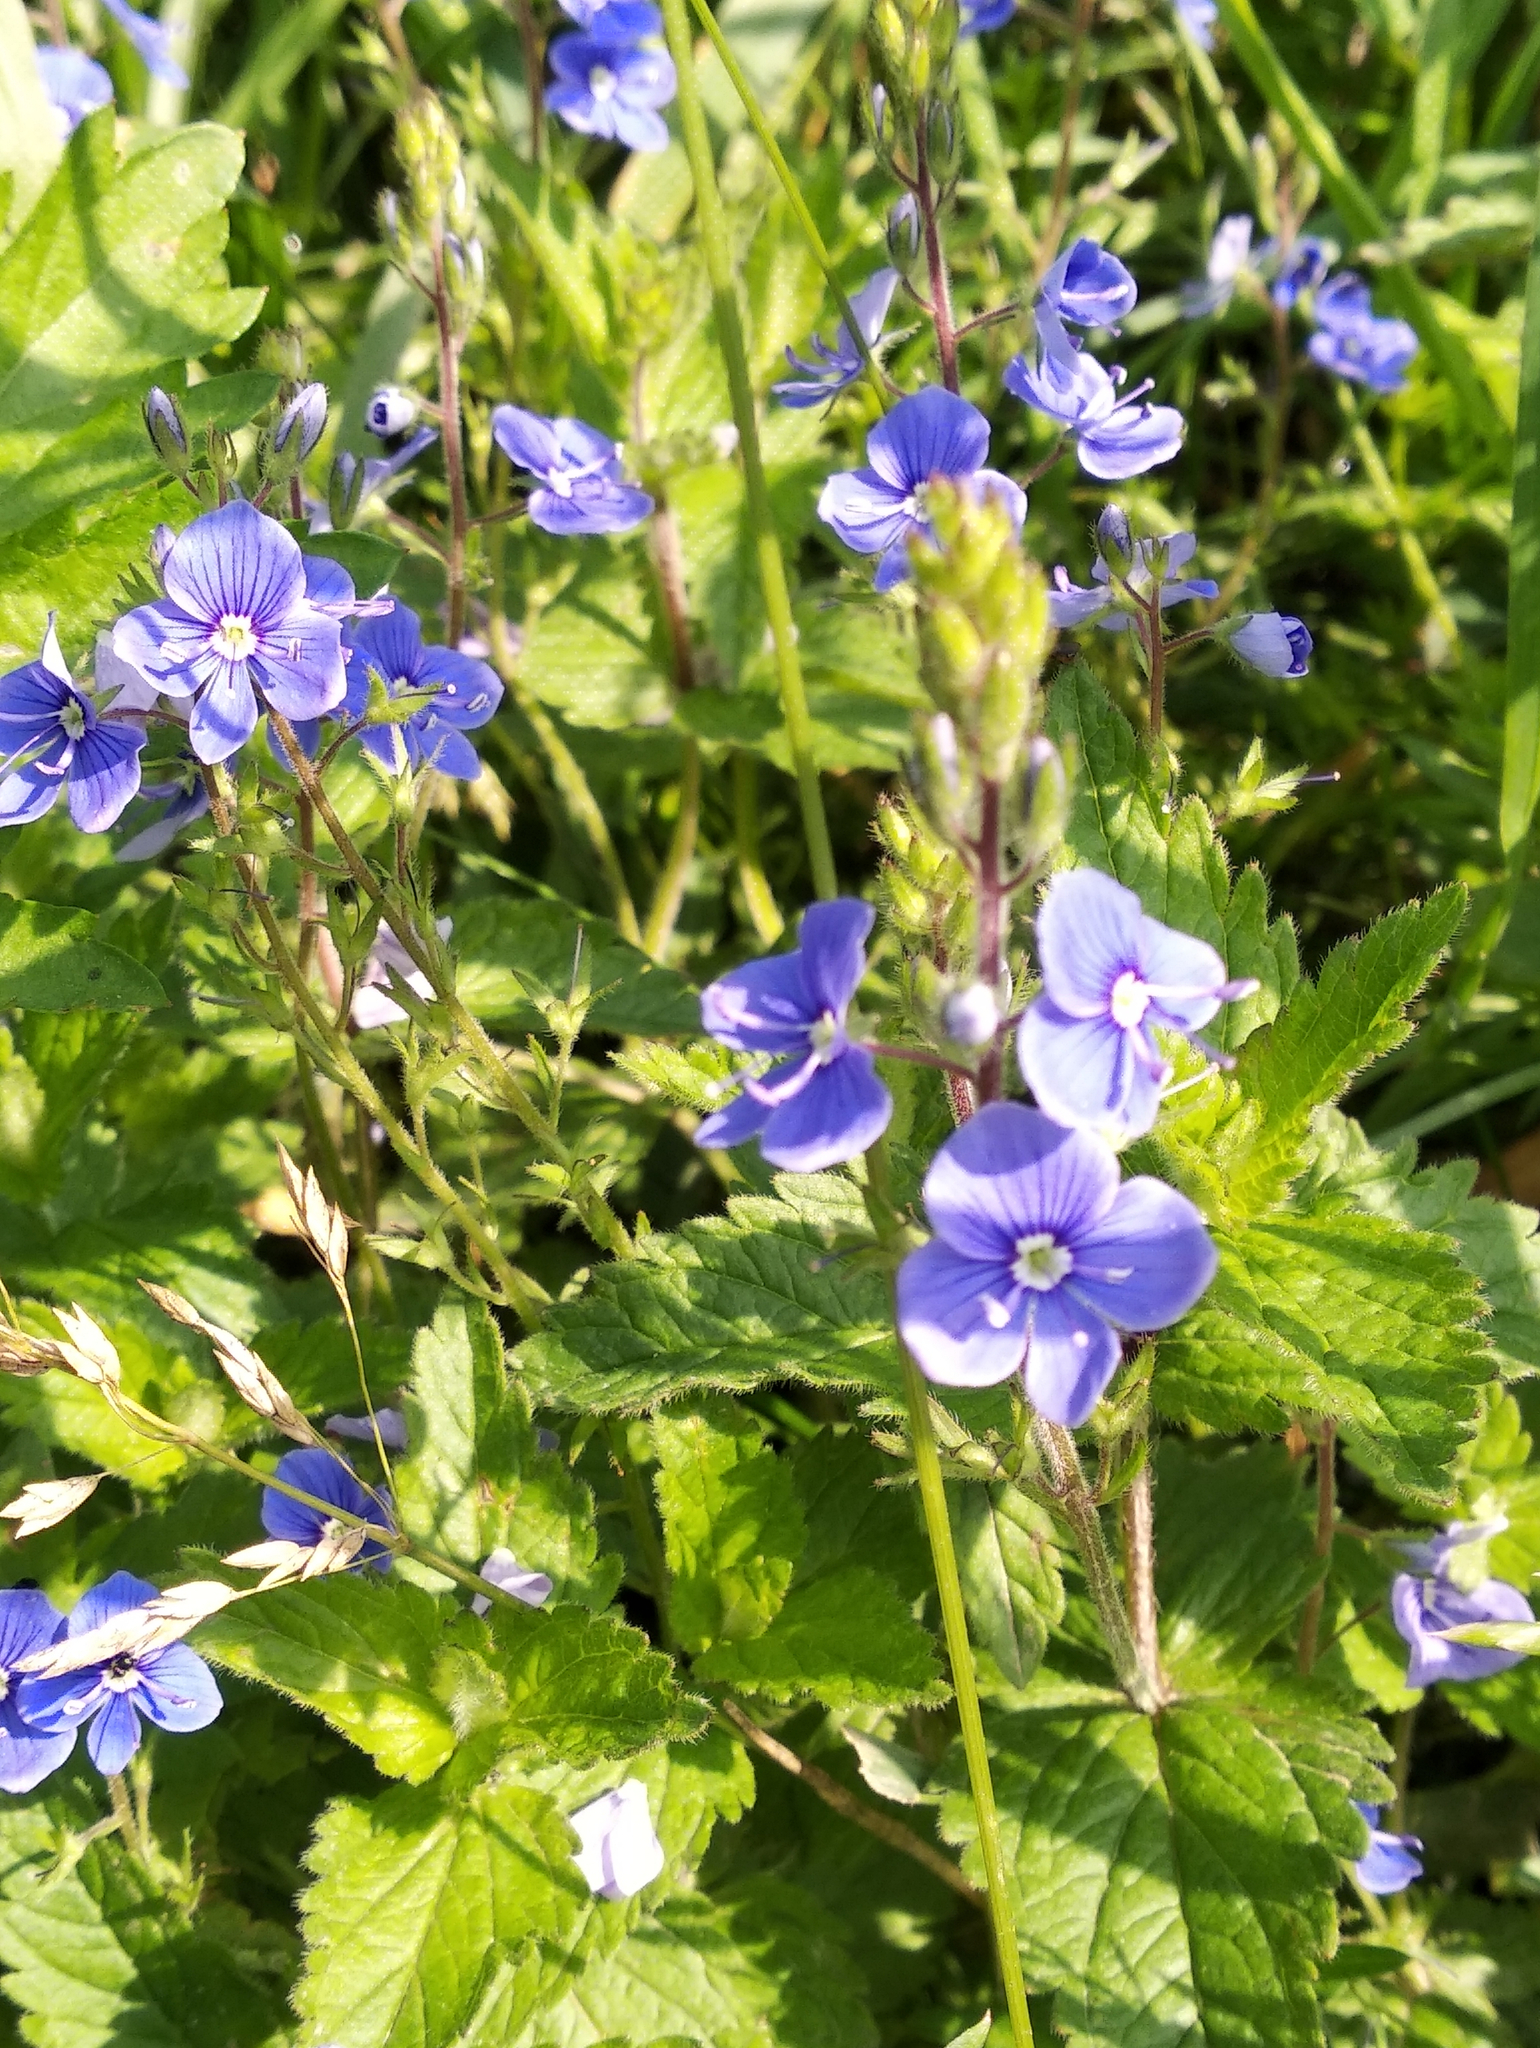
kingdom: Plantae
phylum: Tracheophyta
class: Magnoliopsida
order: Lamiales
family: Plantaginaceae
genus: Veronica
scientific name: Veronica chamaedrys
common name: Germander speedwell
